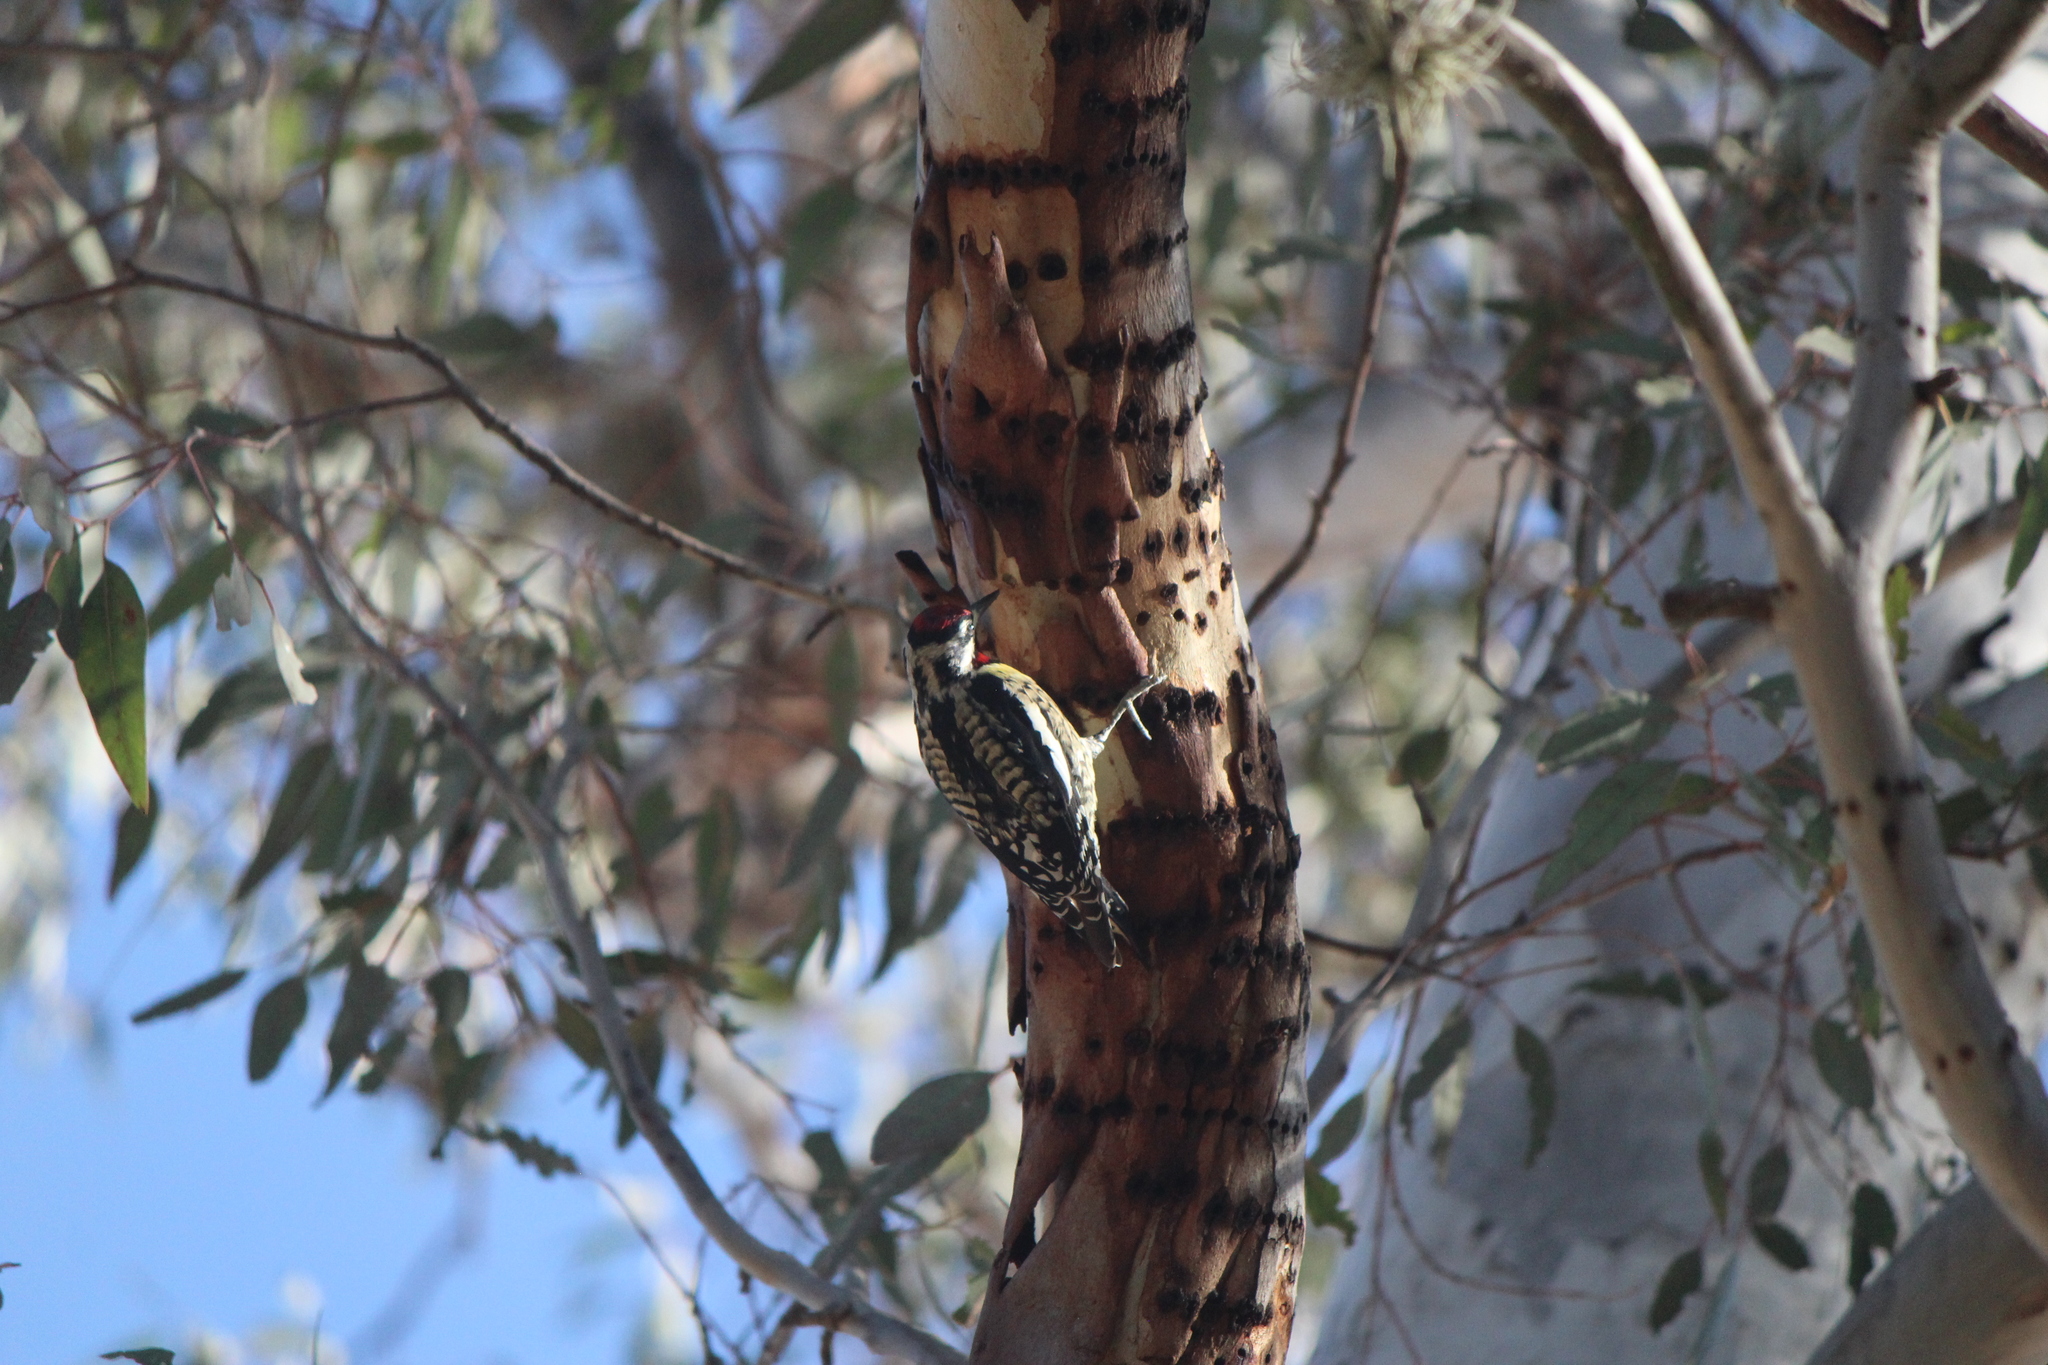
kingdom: Animalia
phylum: Chordata
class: Aves
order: Piciformes
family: Picidae
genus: Sphyrapicus
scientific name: Sphyrapicus varius
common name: Yellow-bellied sapsucker
